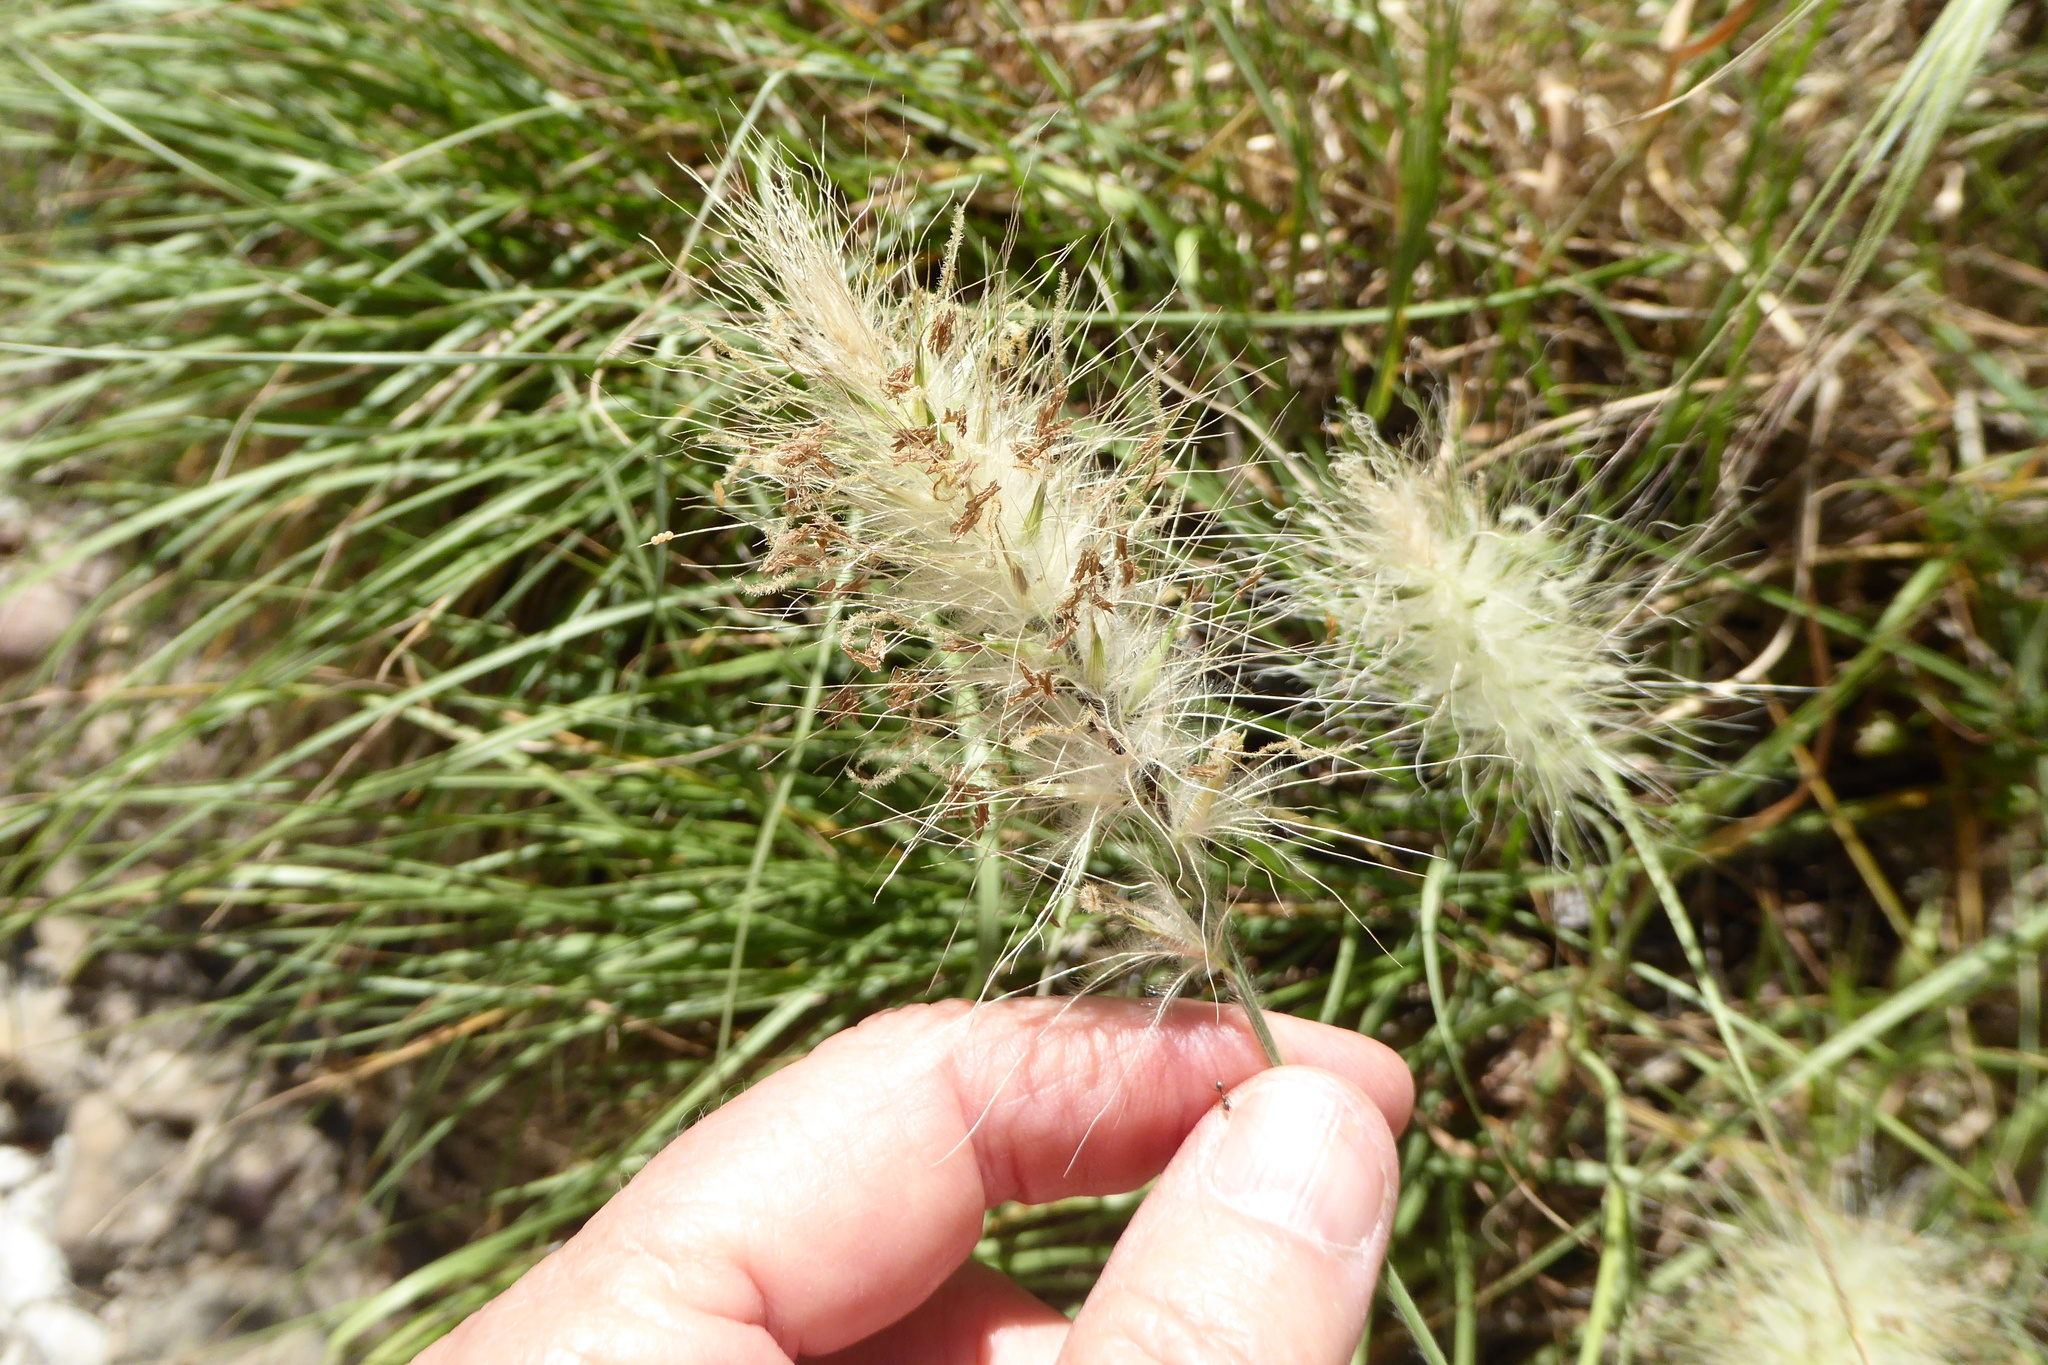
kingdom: Plantae
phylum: Tracheophyta
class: Liliopsida
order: Poales
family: Poaceae
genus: Cenchrus
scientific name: Cenchrus longisetus
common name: Feathertop
